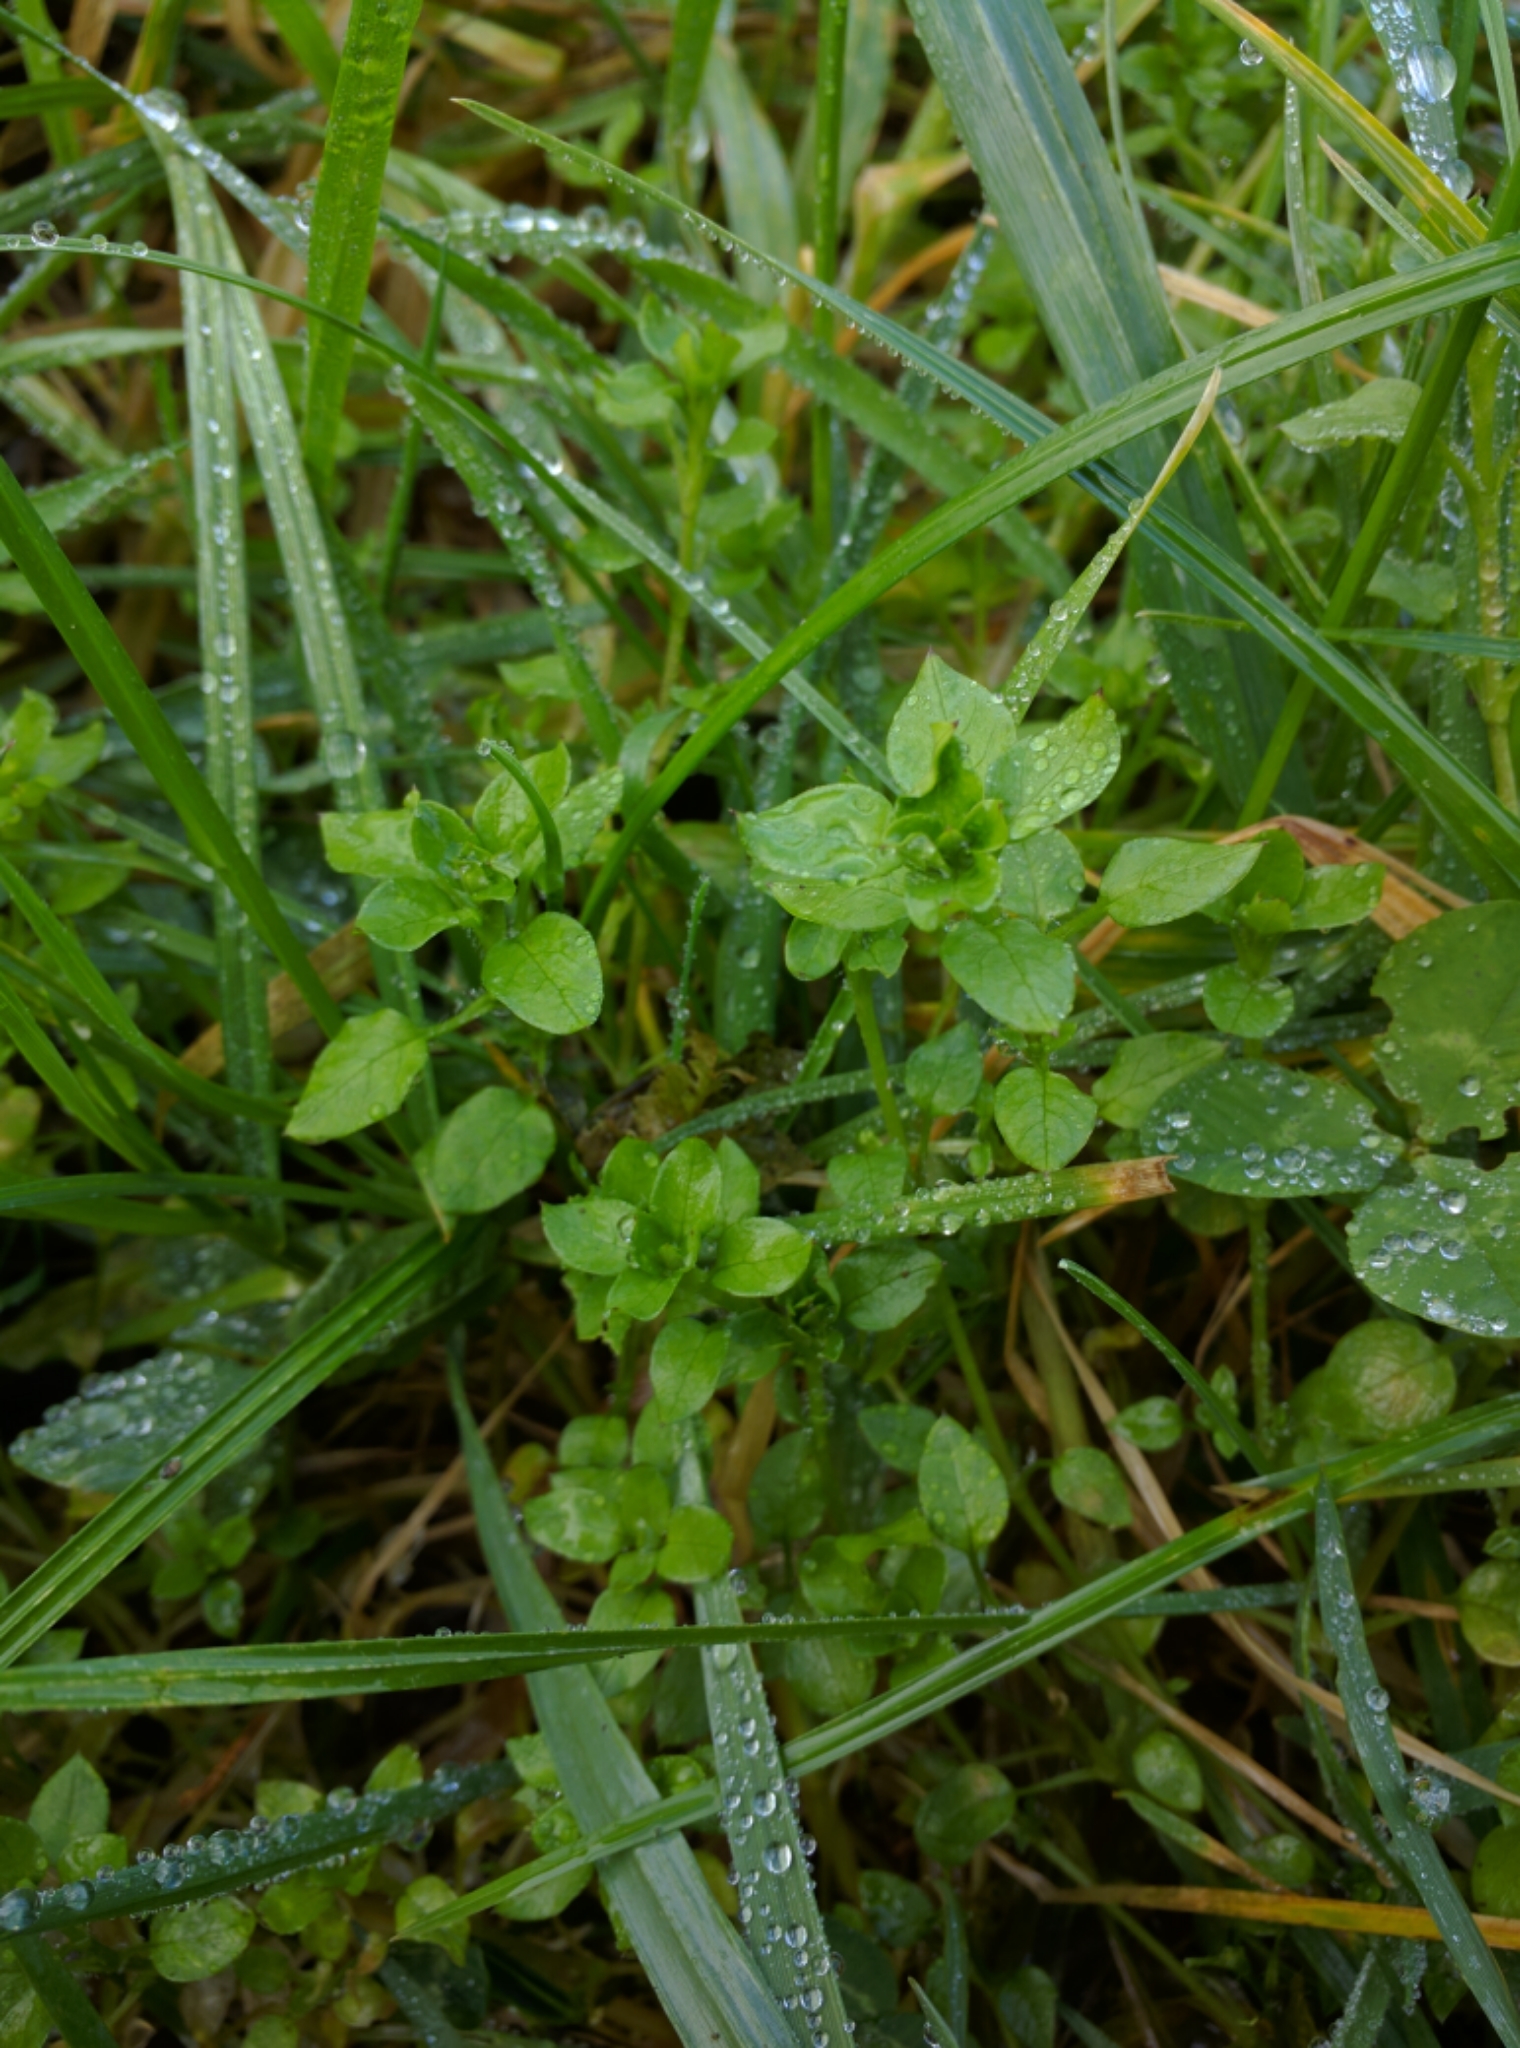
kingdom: Plantae
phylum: Tracheophyta
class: Magnoliopsida
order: Caryophyllales
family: Caryophyllaceae
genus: Stellaria
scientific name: Stellaria media
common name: Common chickweed
